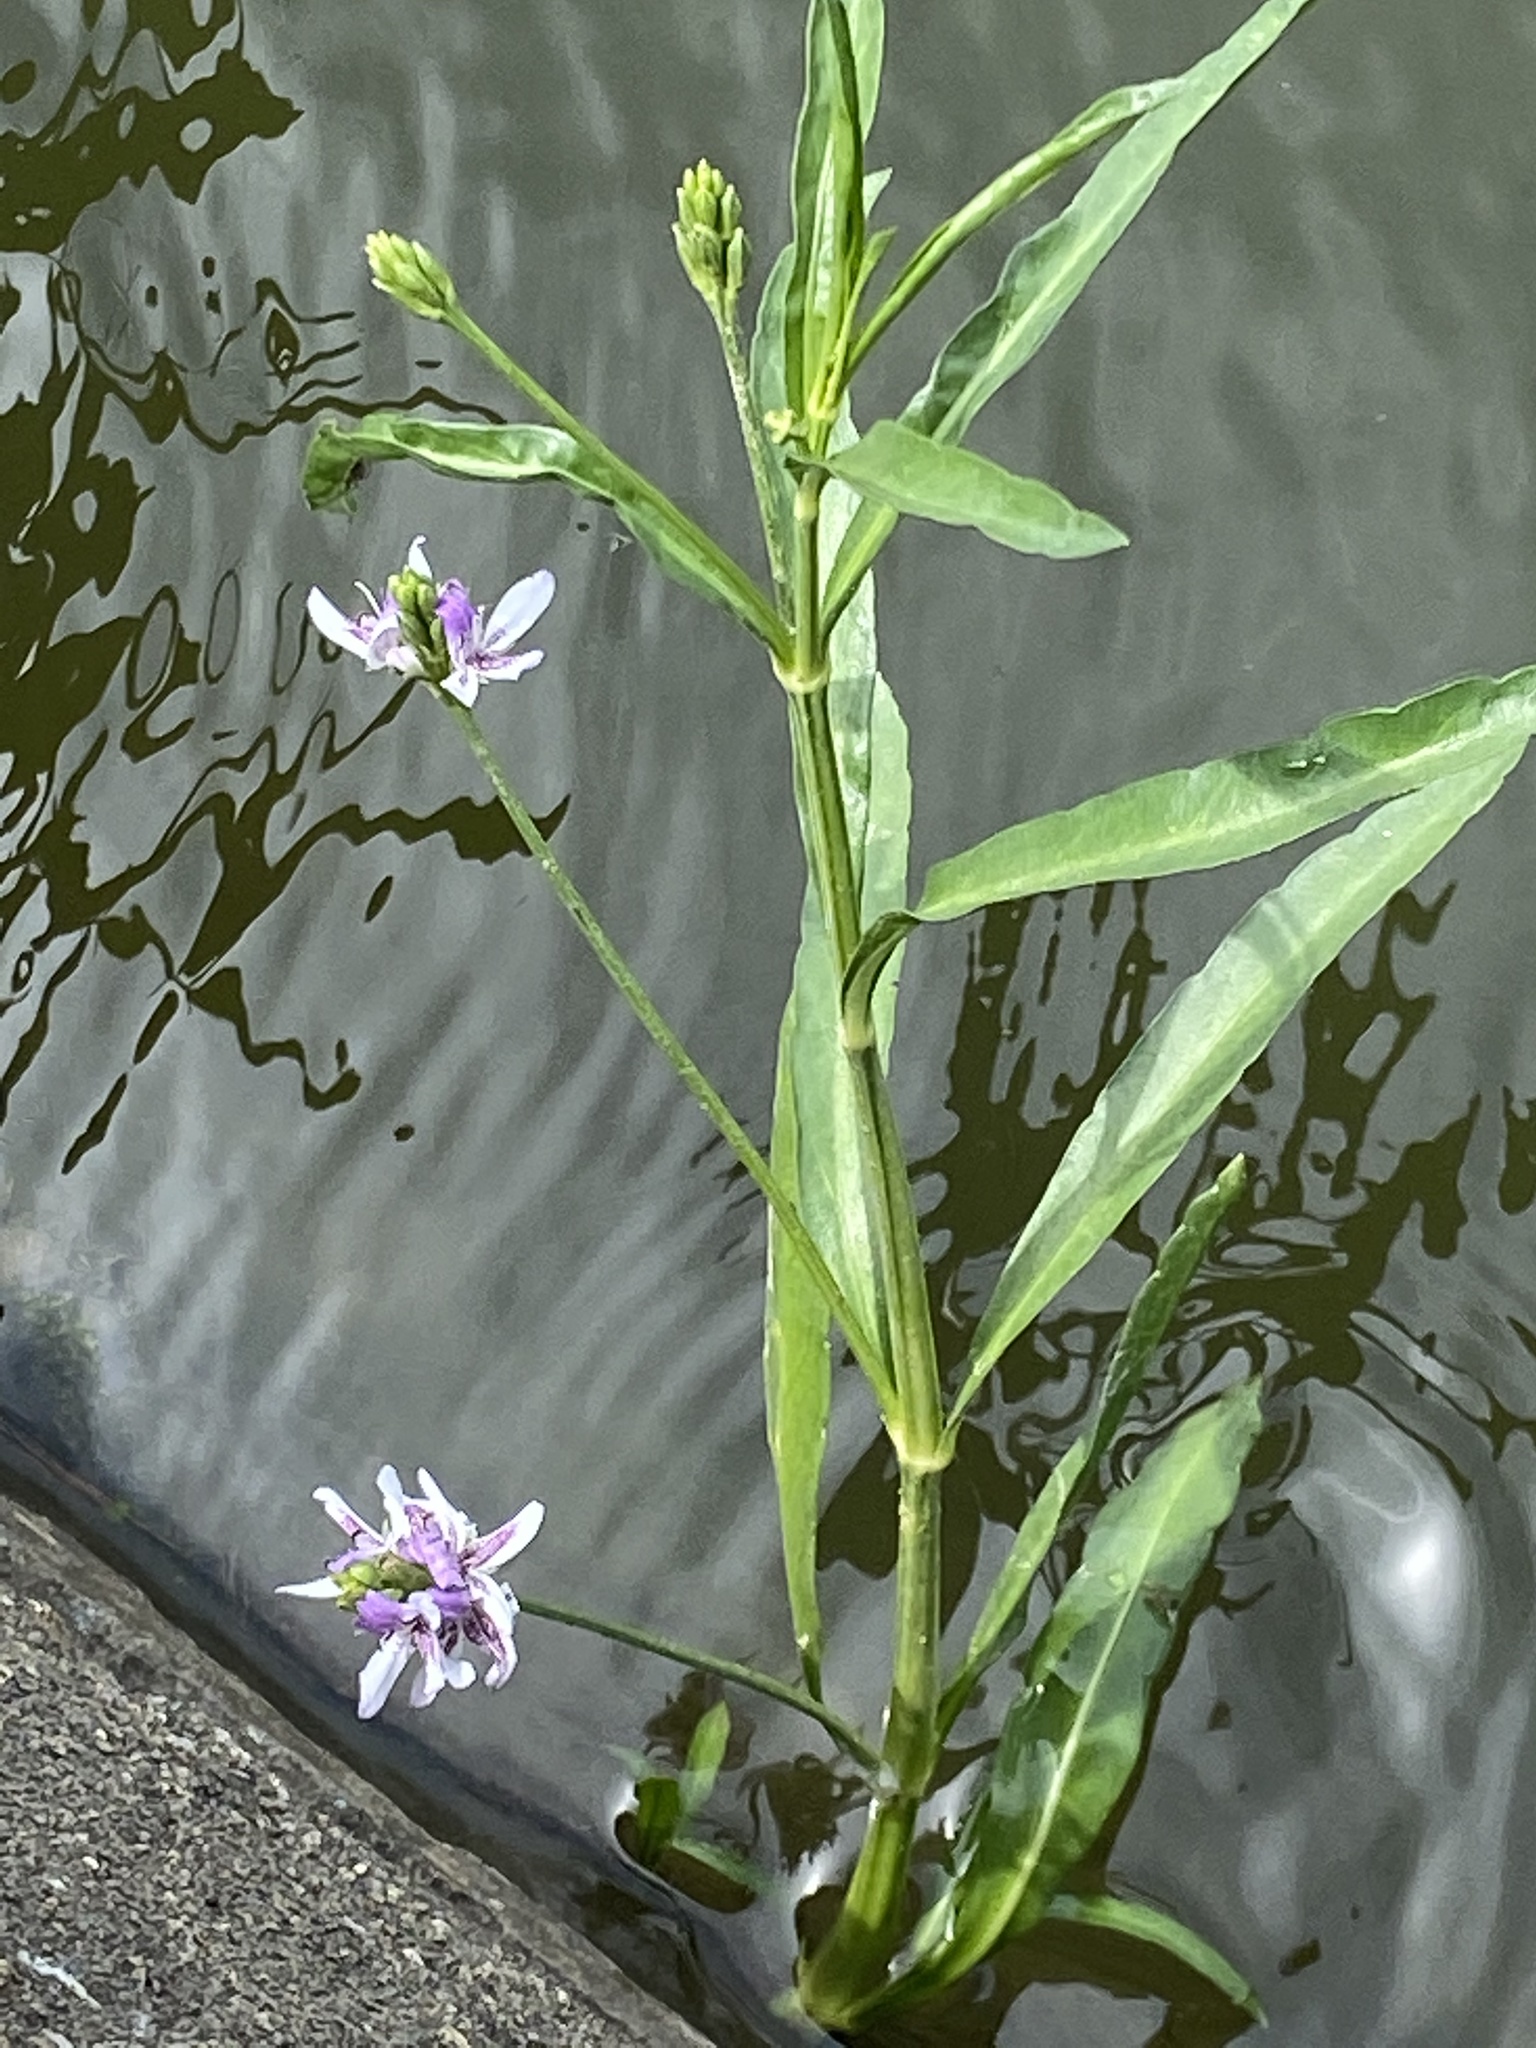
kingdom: Plantae
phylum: Tracheophyta
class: Magnoliopsida
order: Lamiales
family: Acanthaceae
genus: Dianthera
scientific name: Dianthera americana
